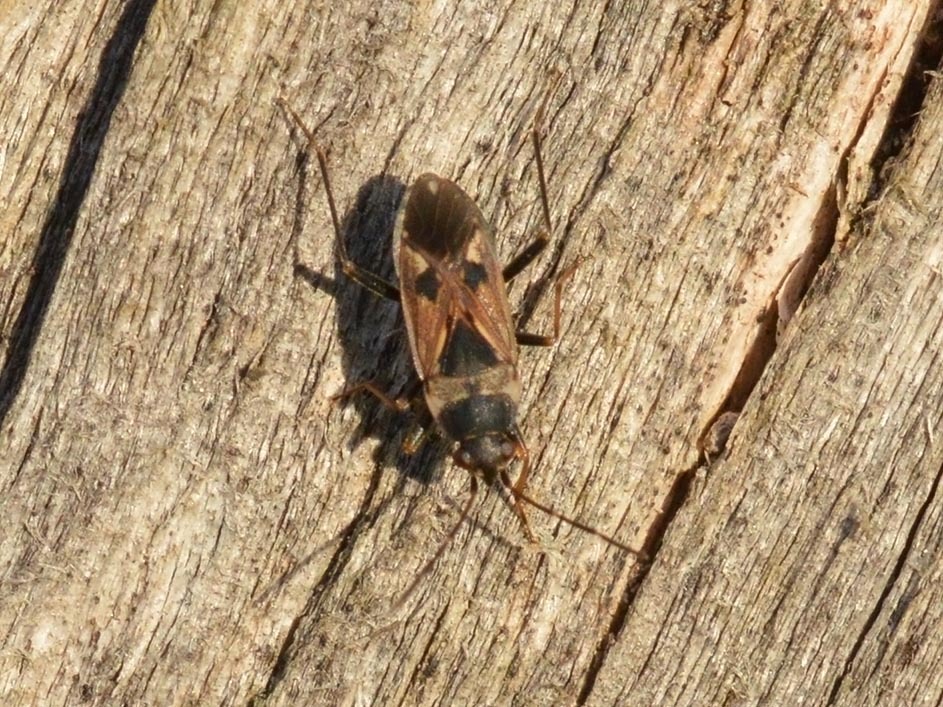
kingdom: Animalia
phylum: Arthropoda
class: Insecta
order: Hemiptera
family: Rhyparochromidae
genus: Rhyparochromus
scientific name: Rhyparochromus vulgaris
